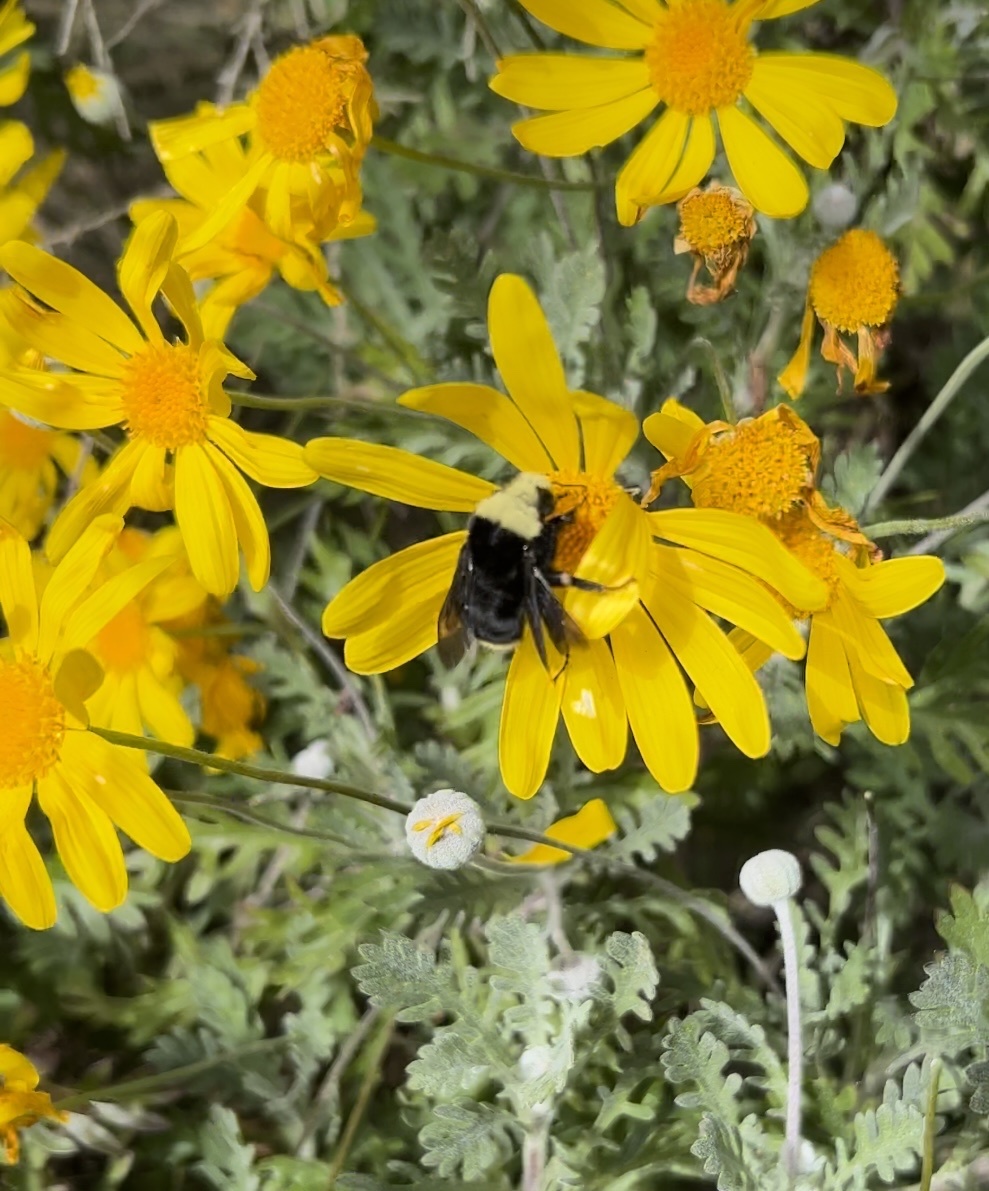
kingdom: Animalia
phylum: Arthropoda
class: Insecta
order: Hymenoptera
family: Apidae
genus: Bombus
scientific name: Bombus vosnesenskii
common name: Vosnesensky bumble bee
